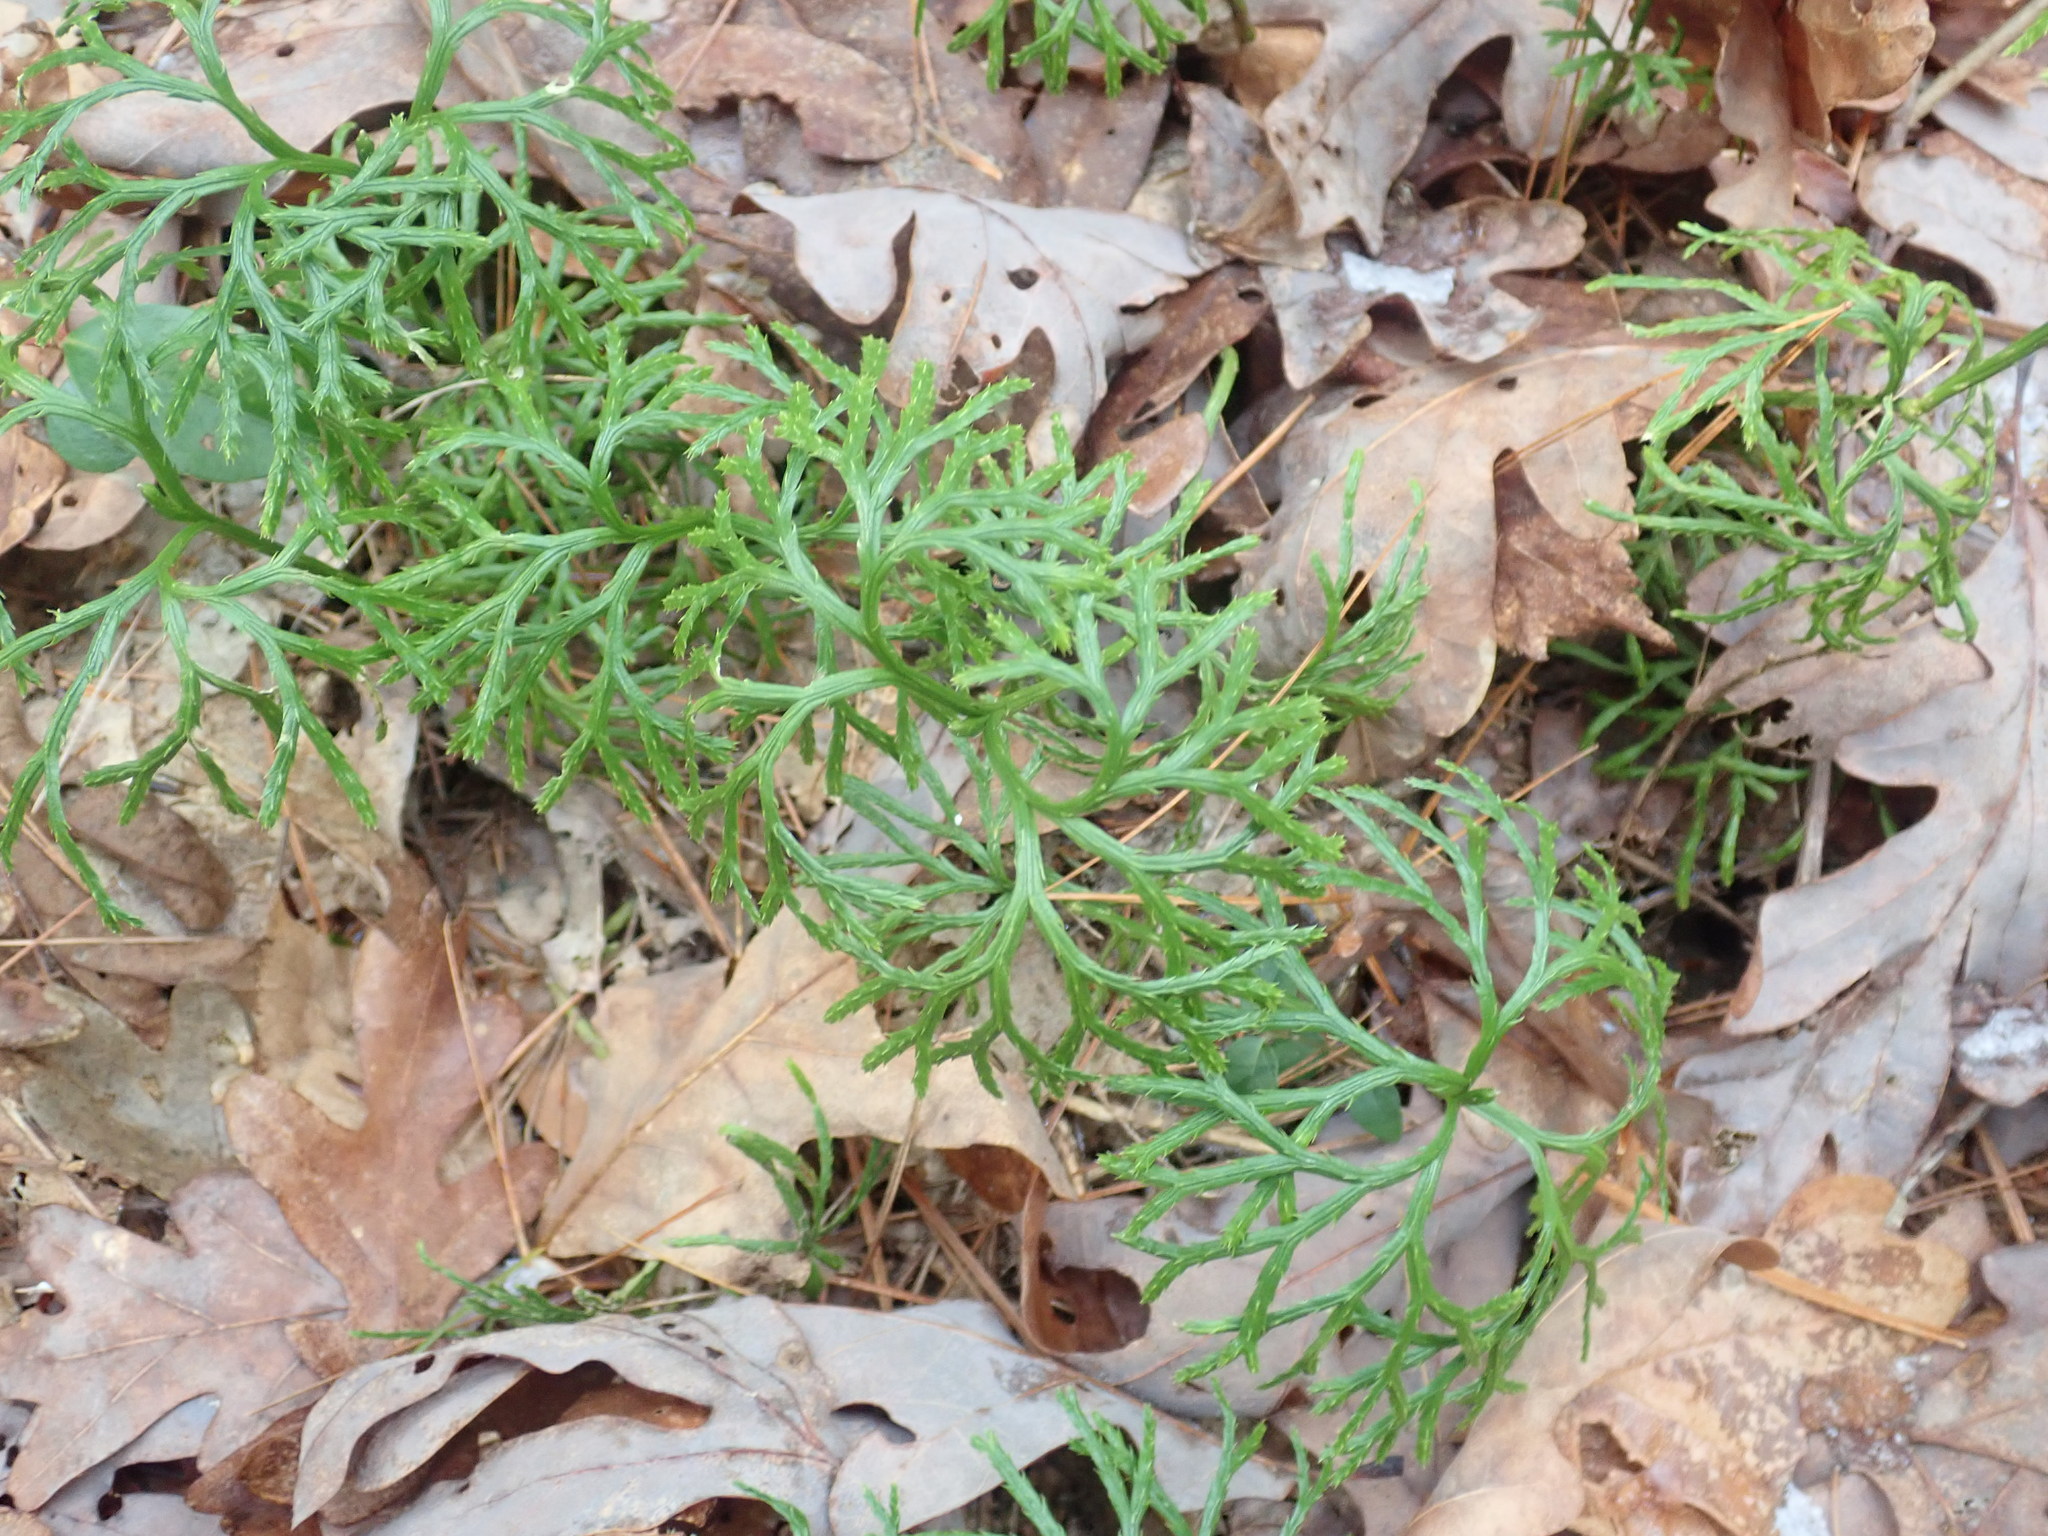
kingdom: Plantae
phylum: Tracheophyta
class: Lycopodiopsida
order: Lycopodiales
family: Lycopodiaceae
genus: Diphasiastrum
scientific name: Diphasiastrum digitatum
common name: Southern running-pine
